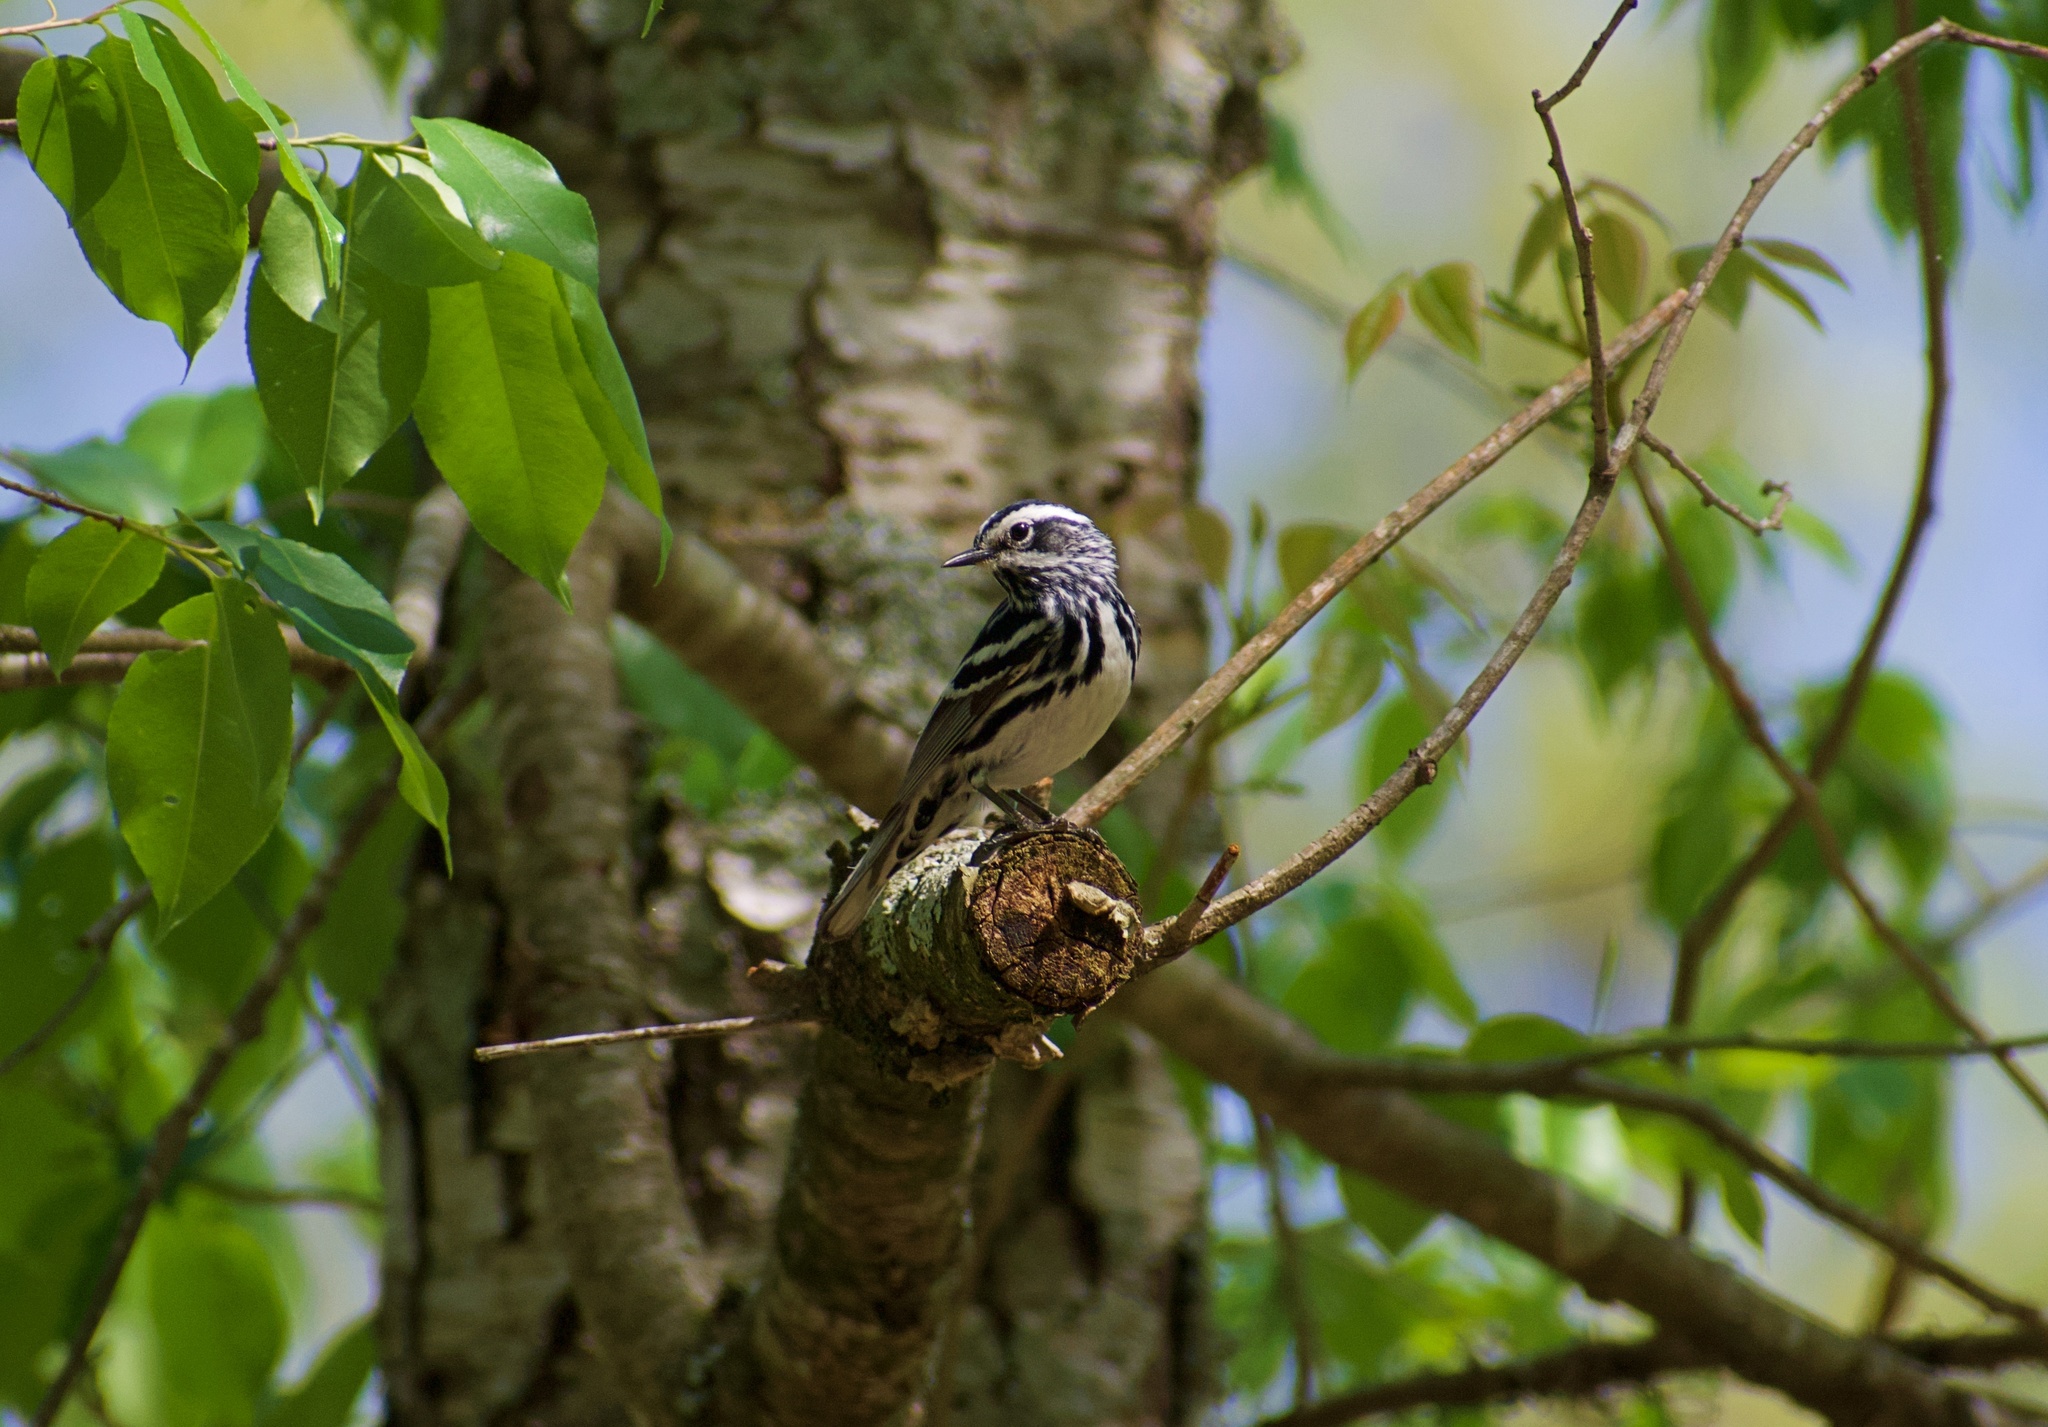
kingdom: Animalia
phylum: Chordata
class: Aves
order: Passeriformes
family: Parulidae
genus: Mniotilta
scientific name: Mniotilta varia
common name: Black-and-white warbler
